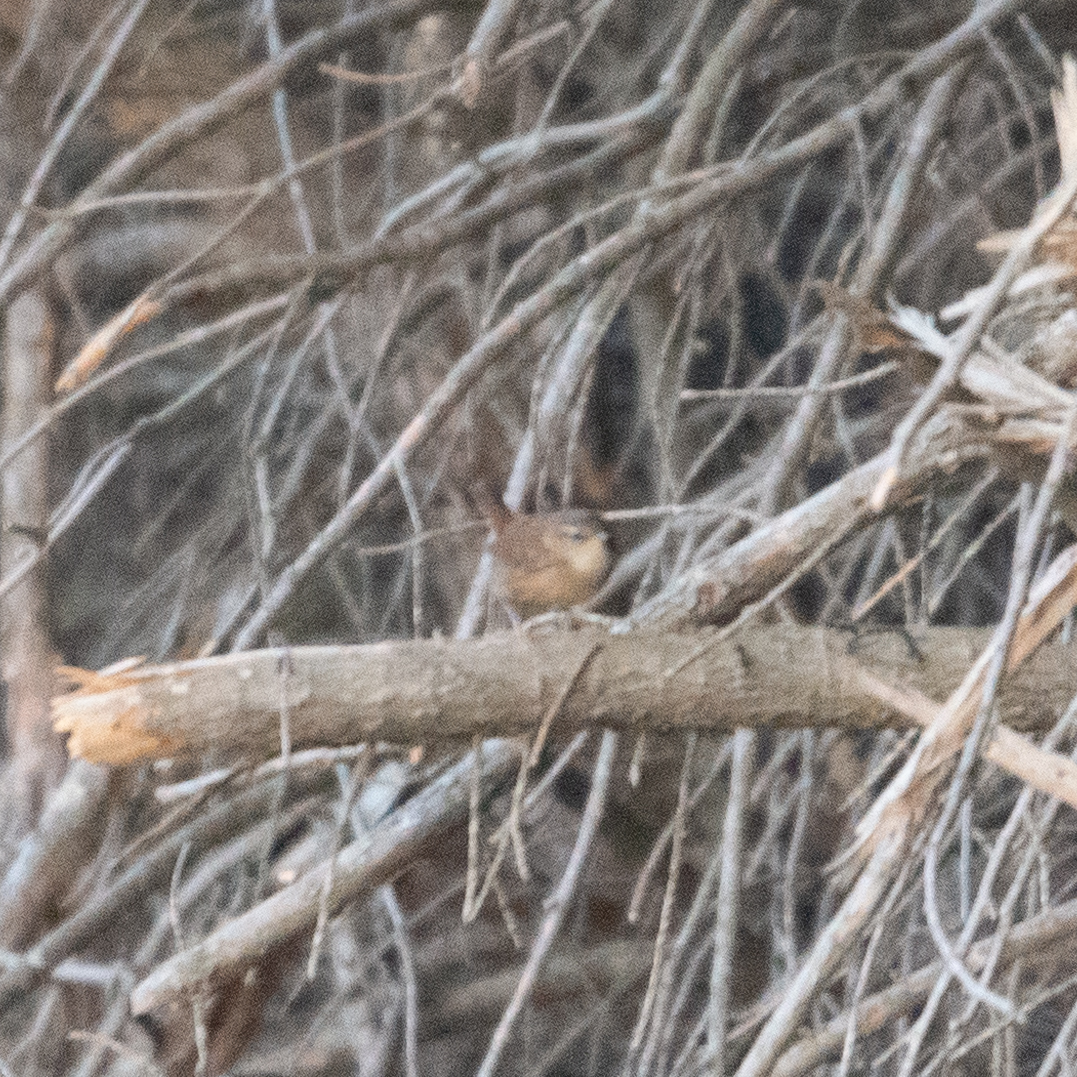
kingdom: Animalia
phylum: Chordata
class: Aves
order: Passeriformes
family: Troglodytidae
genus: Troglodytes
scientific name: Troglodytes troglodytes
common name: Eurasian wren
